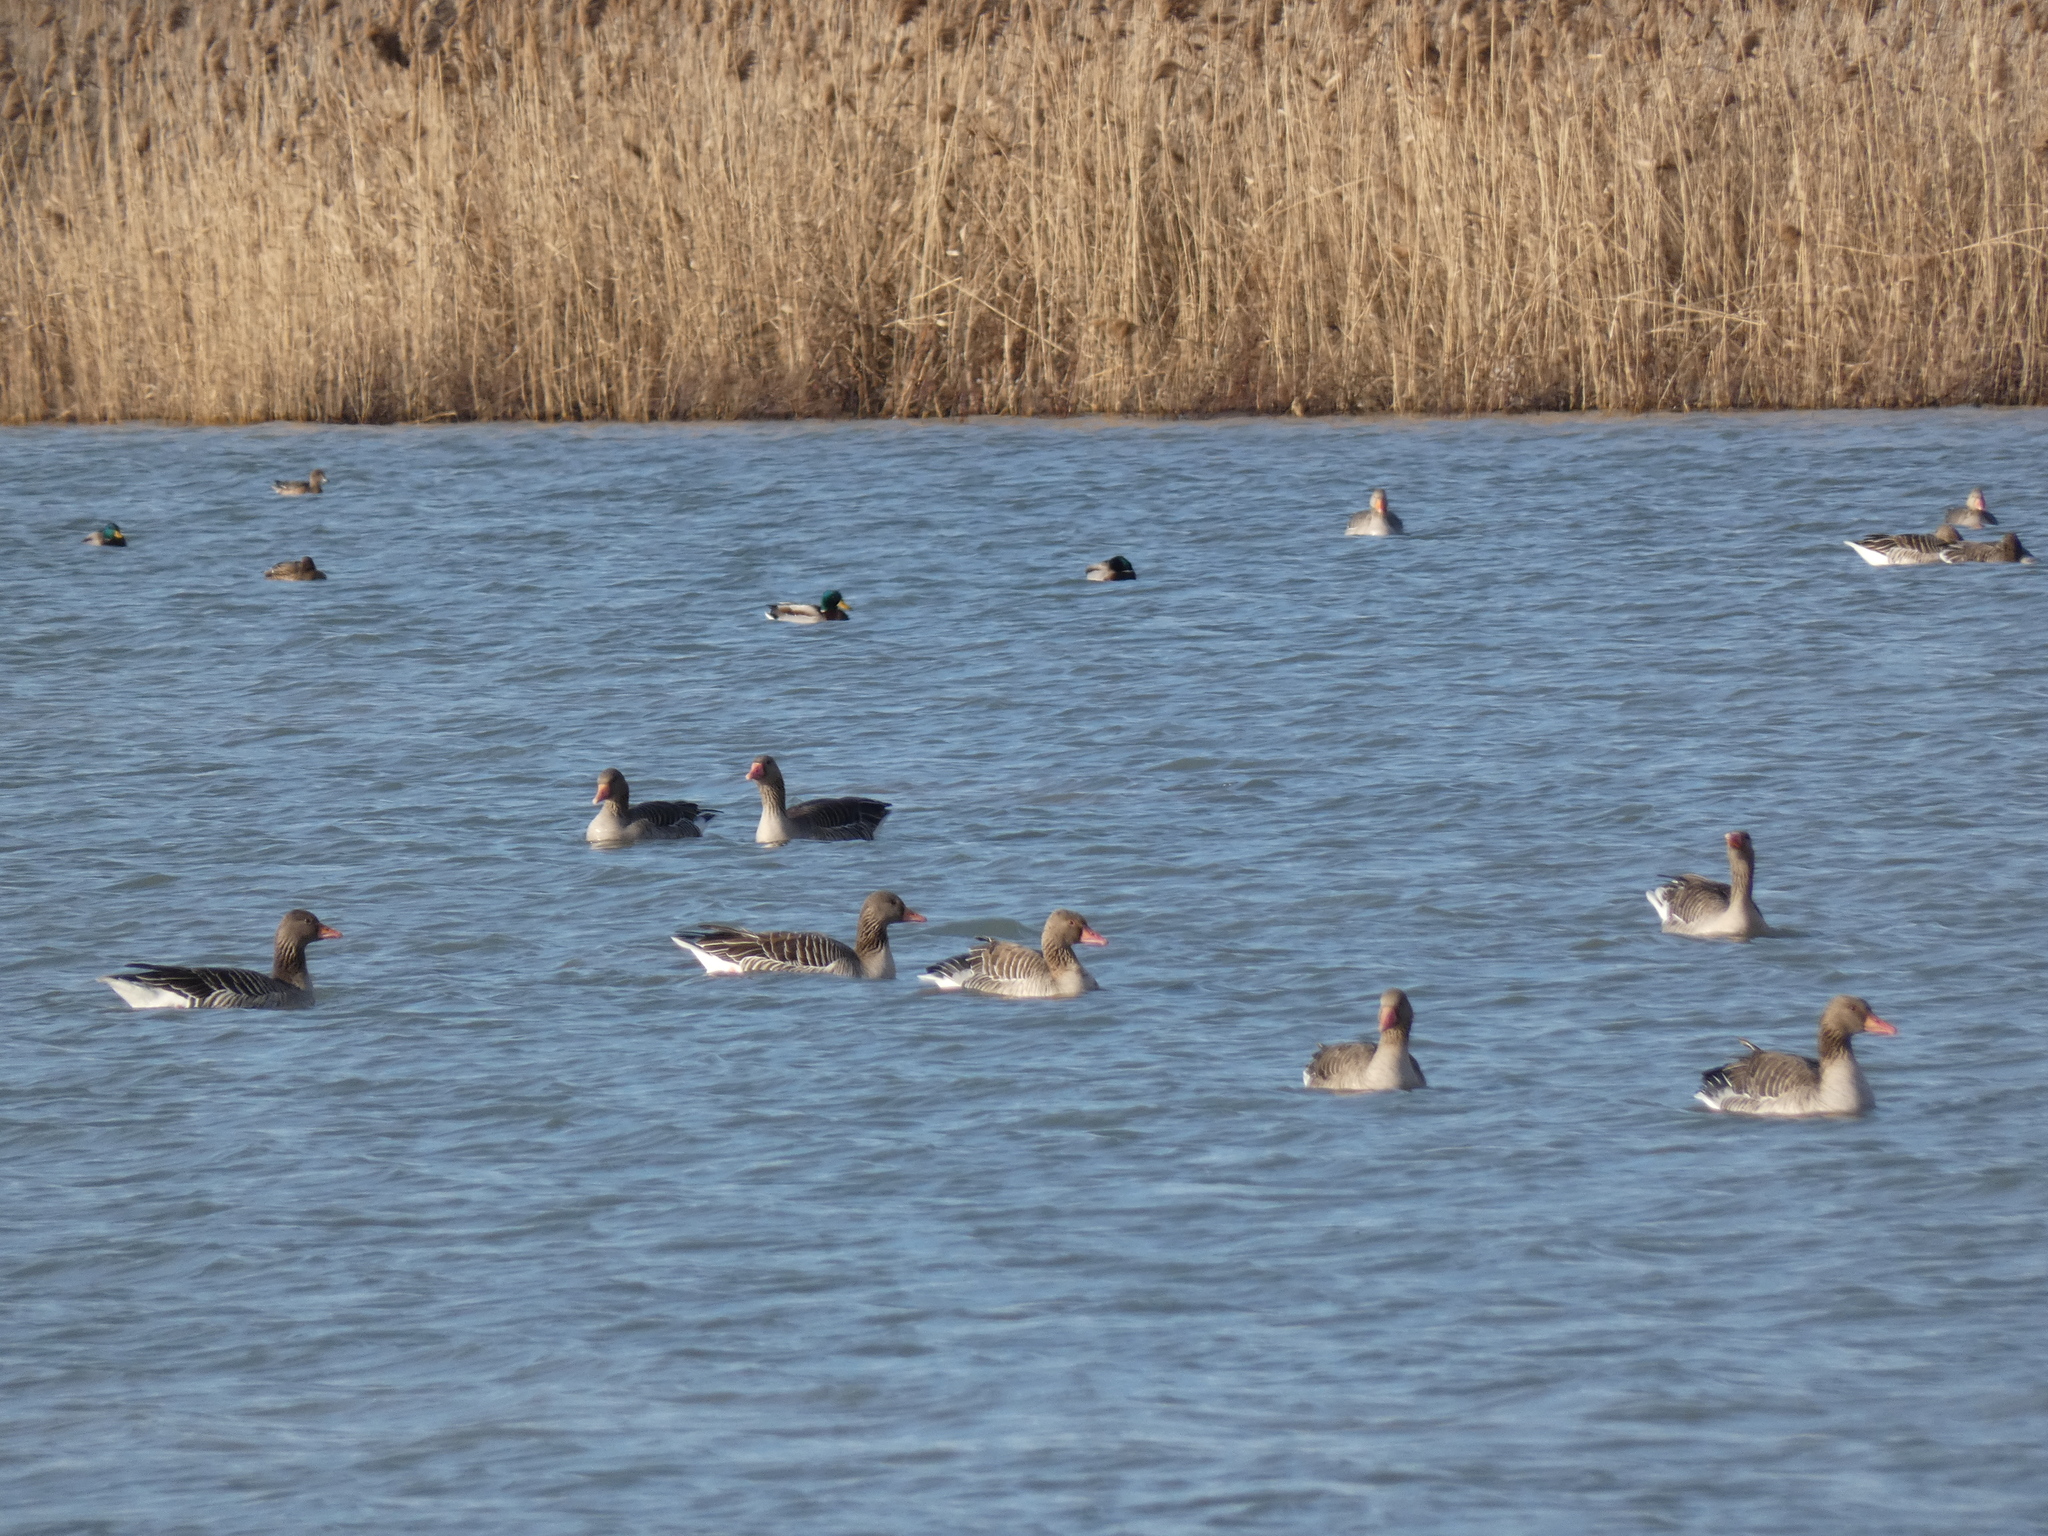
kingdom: Animalia
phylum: Chordata
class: Aves
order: Anseriformes
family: Anatidae
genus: Anser
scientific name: Anser anser
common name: Greylag goose
